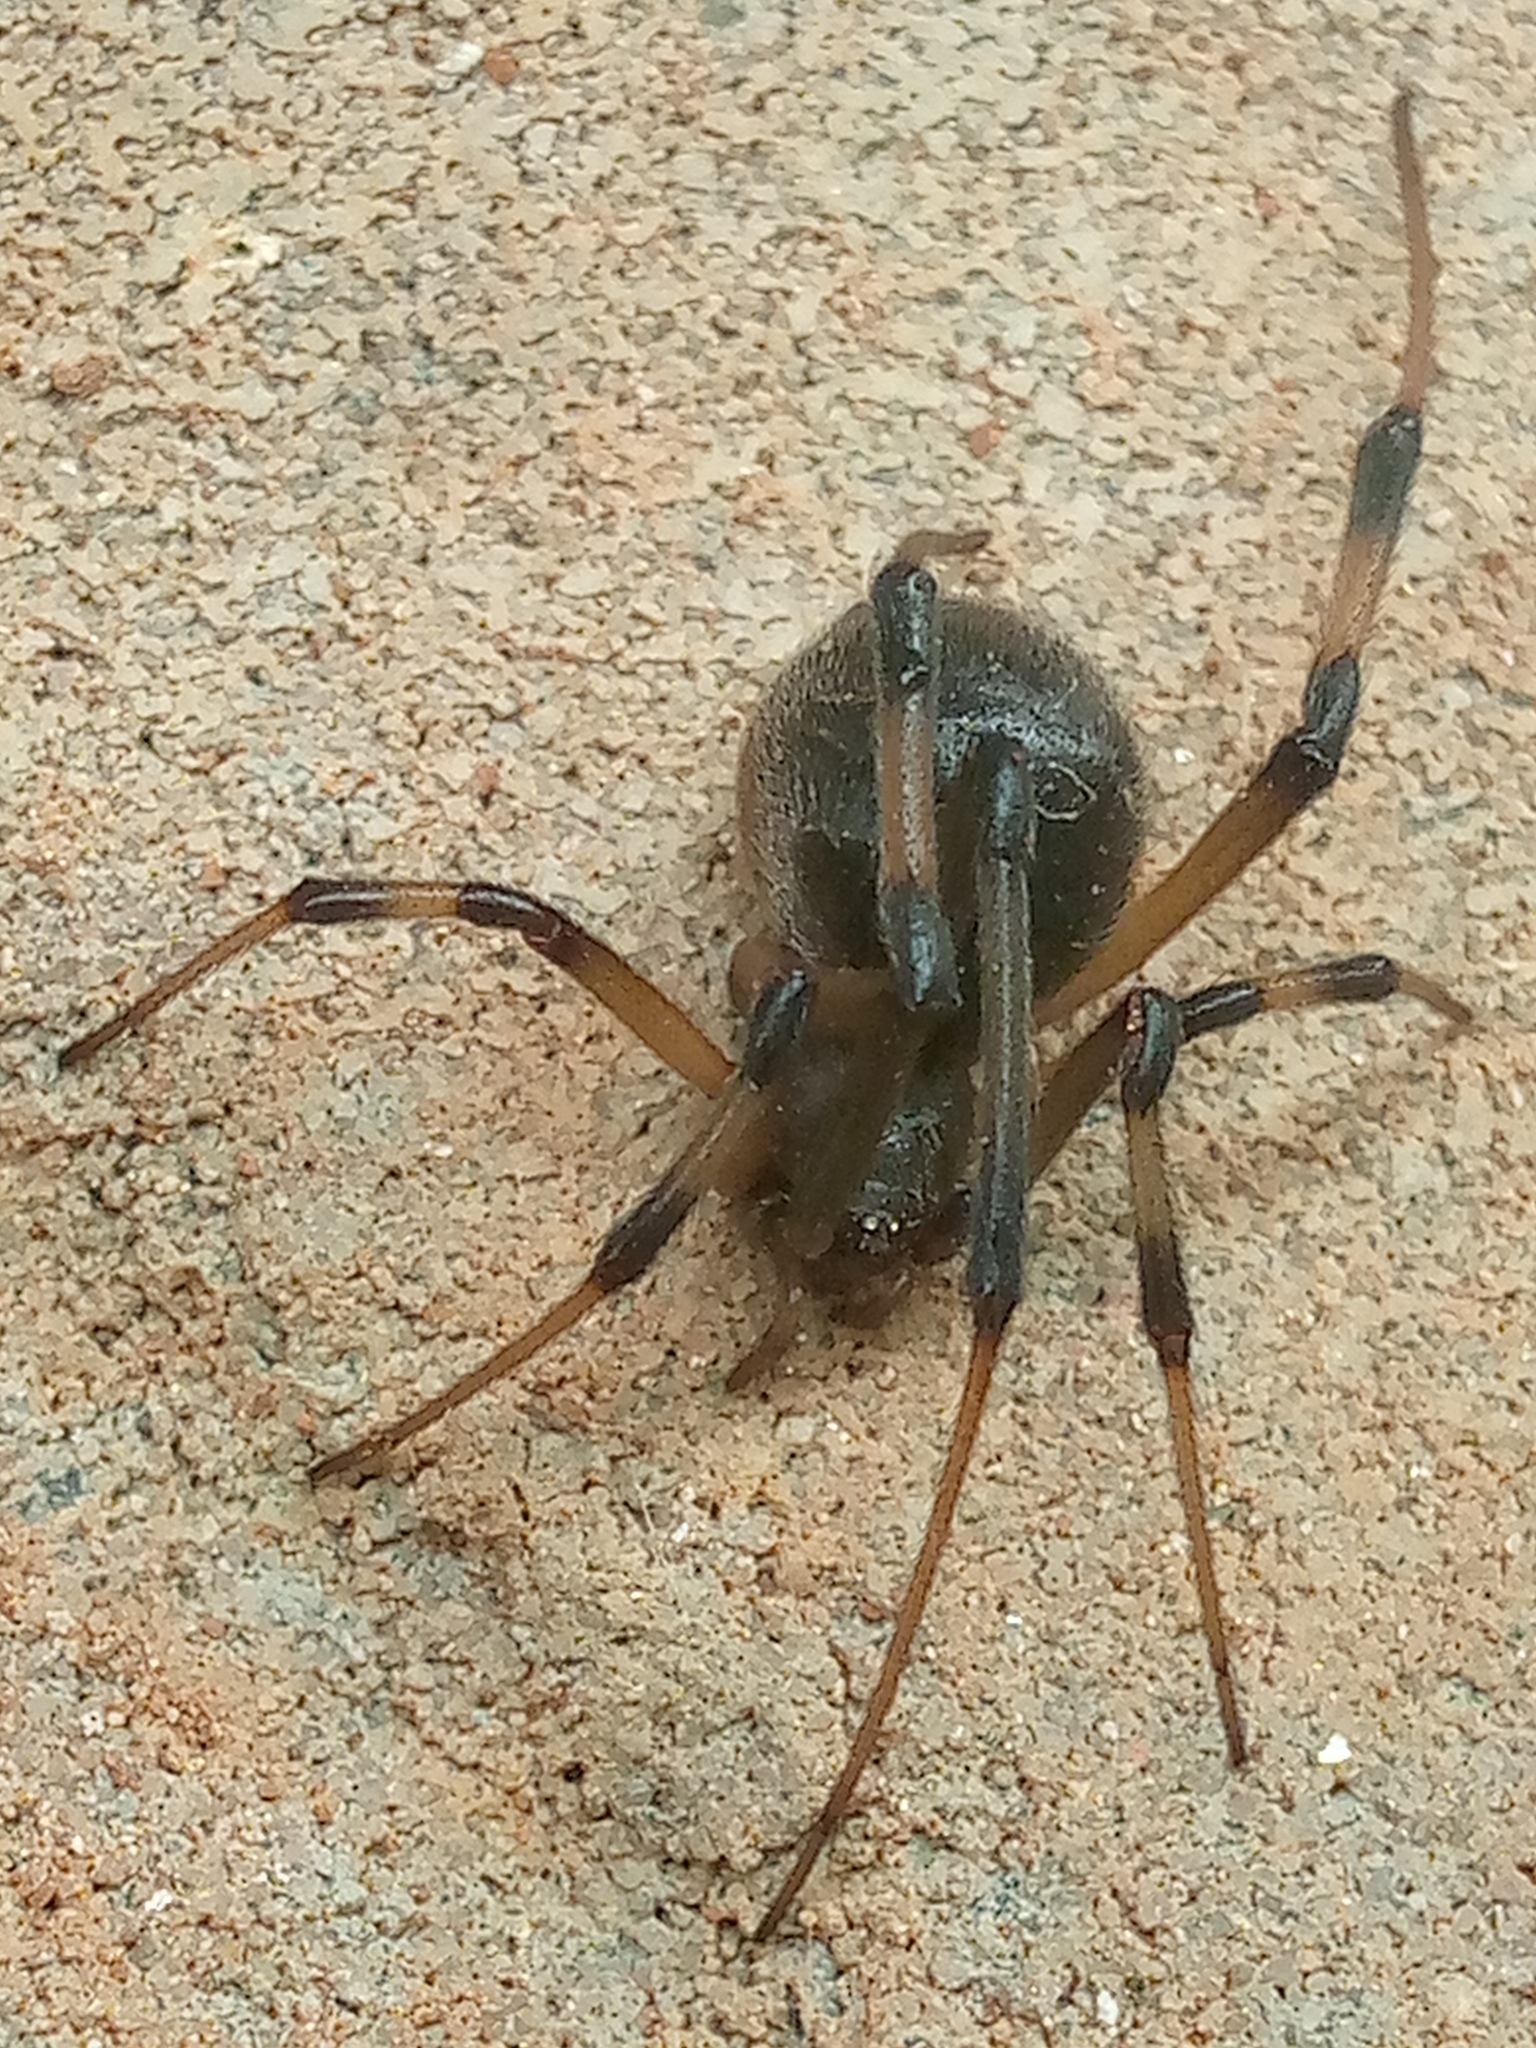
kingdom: Animalia
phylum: Arthropoda
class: Arachnida
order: Araneae
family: Theridiidae
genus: Latrodectus
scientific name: Latrodectus geometricus
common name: Brown widow spider
